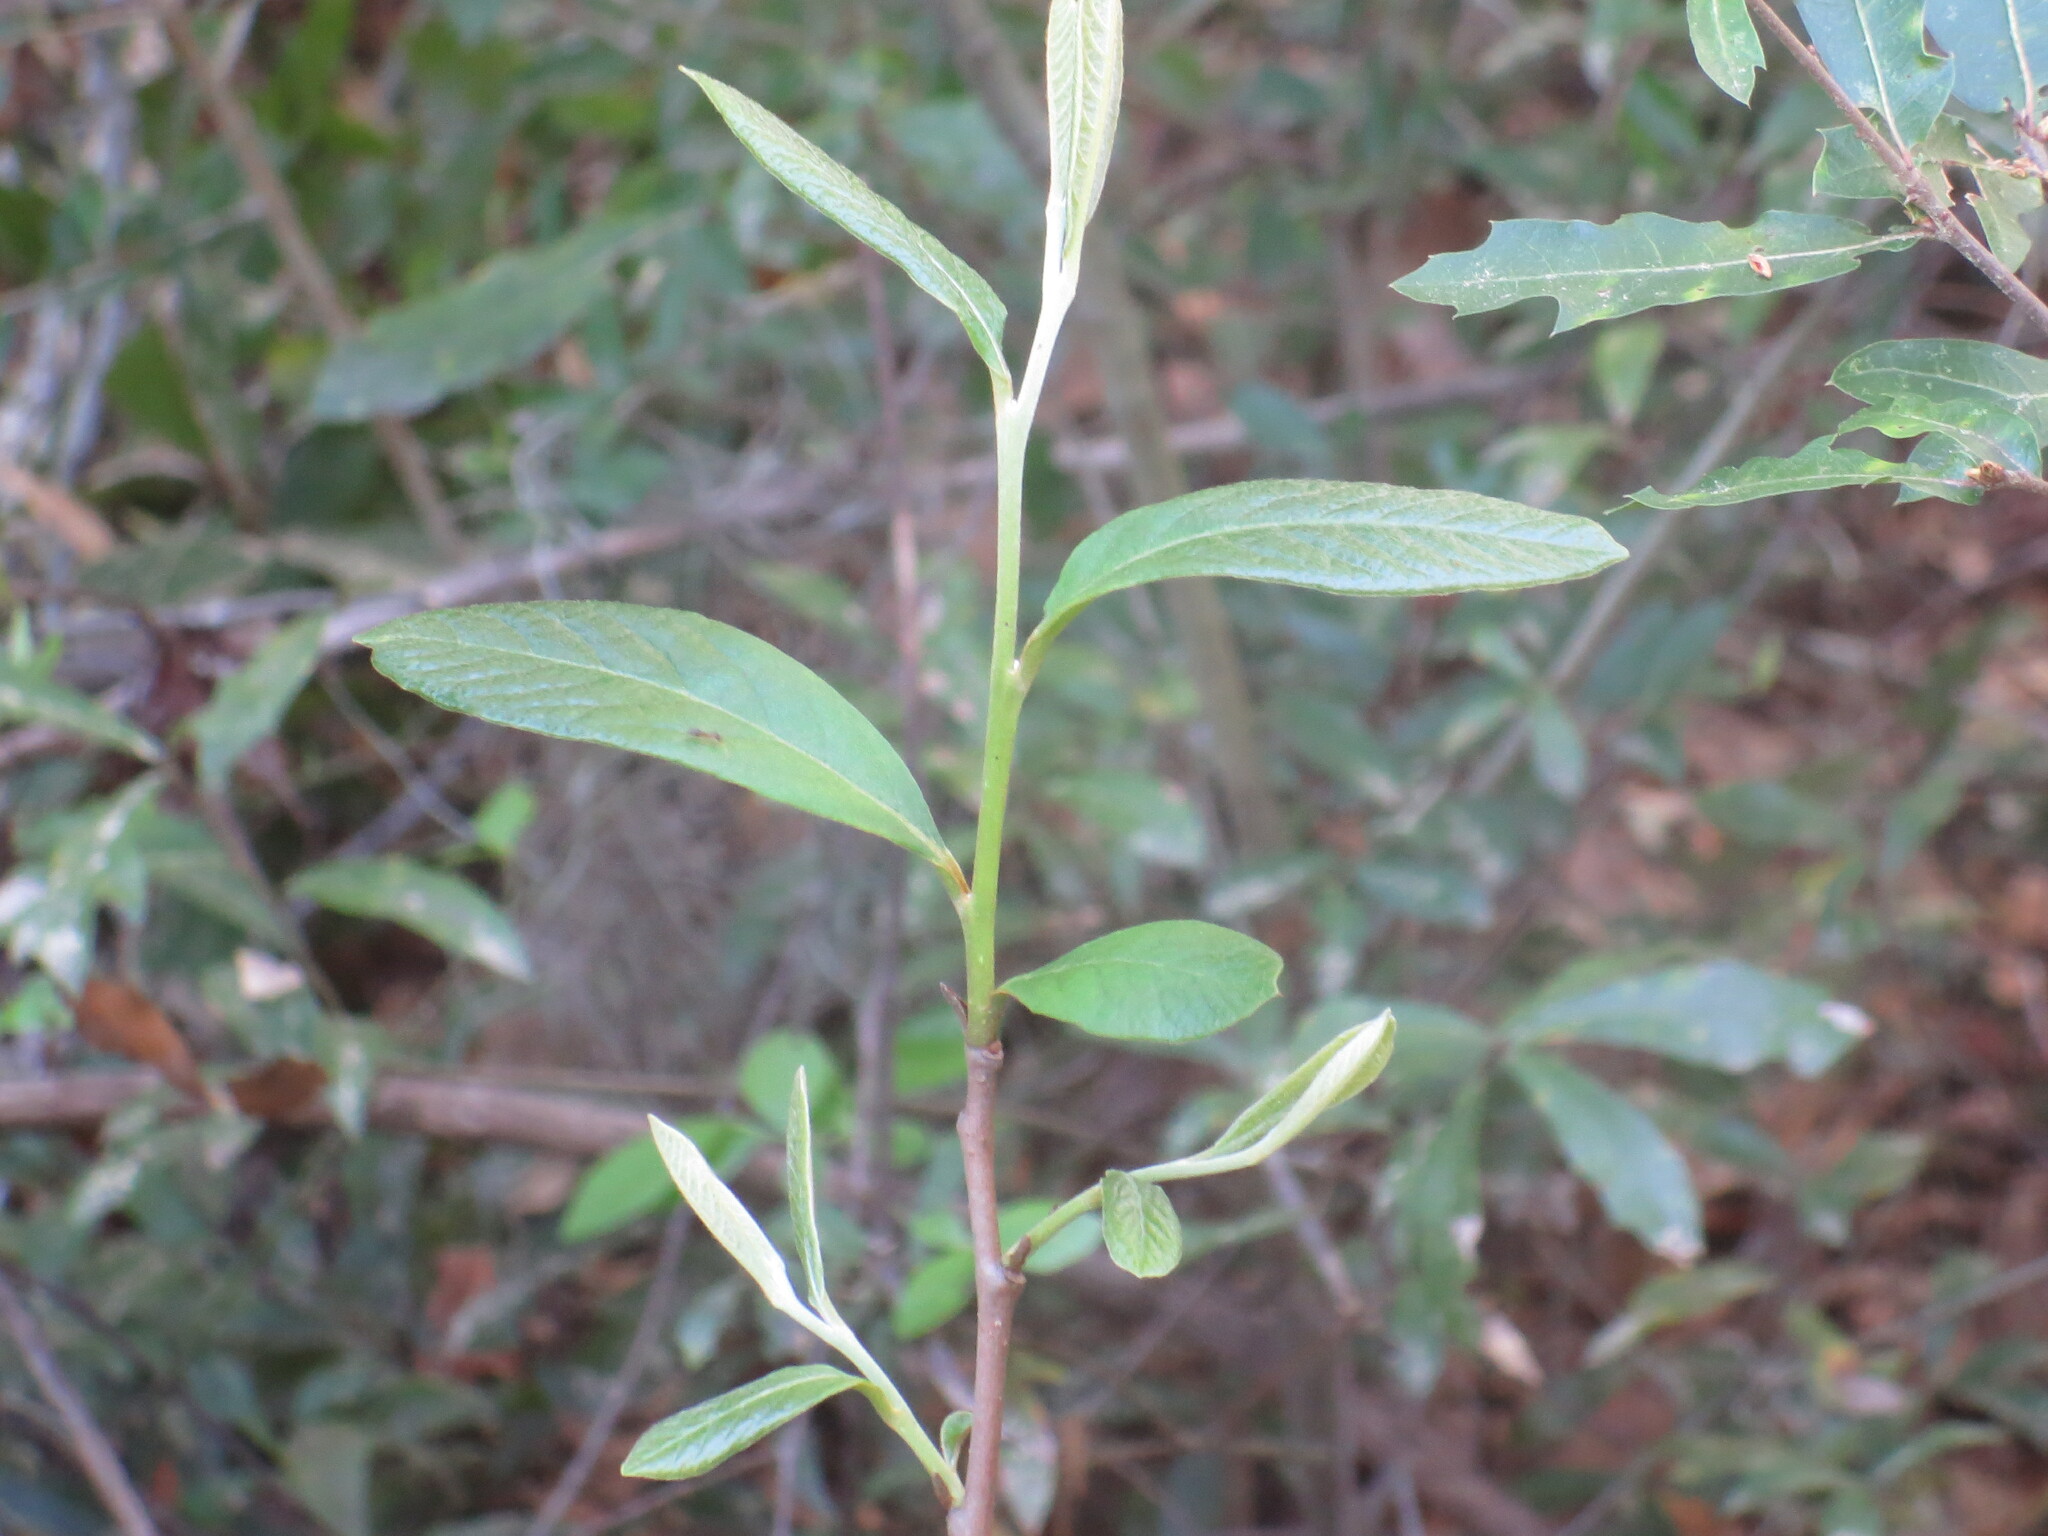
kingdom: Plantae
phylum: Tracheophyta
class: Magnoliopsida
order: Magnoliales
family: Annonaceae
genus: Asimina
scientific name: Asimina parviflora
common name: Dwarf pawpaw
